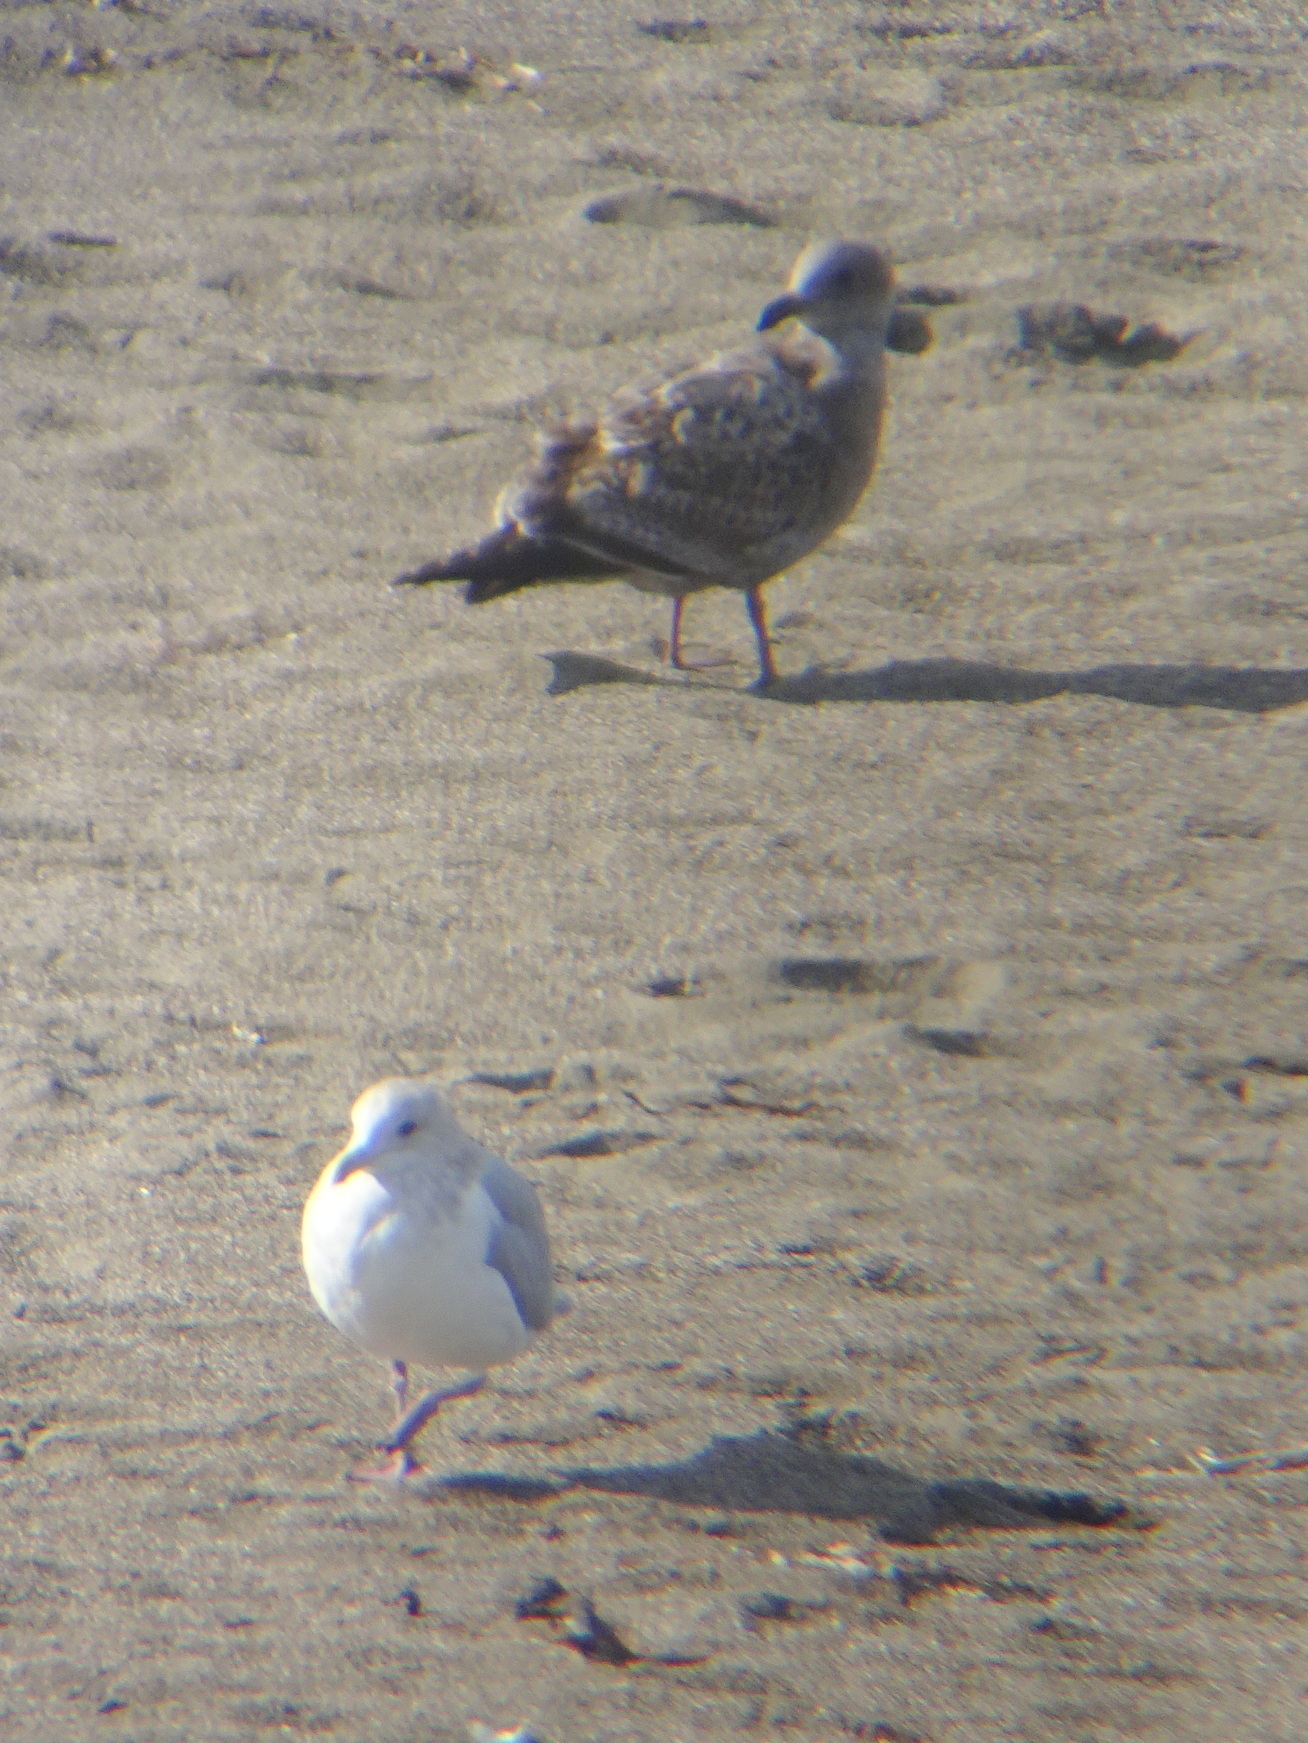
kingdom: Animalia
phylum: Chordata
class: Aves
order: Charadriiformes
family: Laridae
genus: Larus
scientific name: Larus
